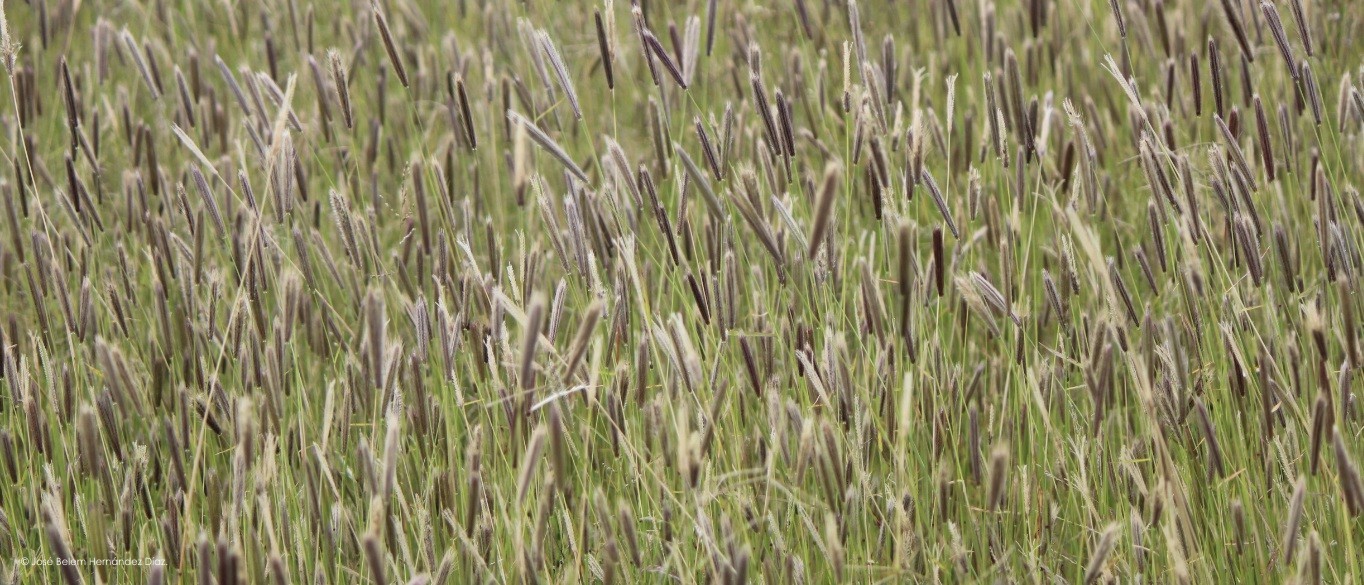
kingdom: Plantae
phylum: Tracheophyta
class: Liliopsida
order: Poales
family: Poaceae
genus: Chloris
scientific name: Chloris virgata
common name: Feathery rhodes-grass
